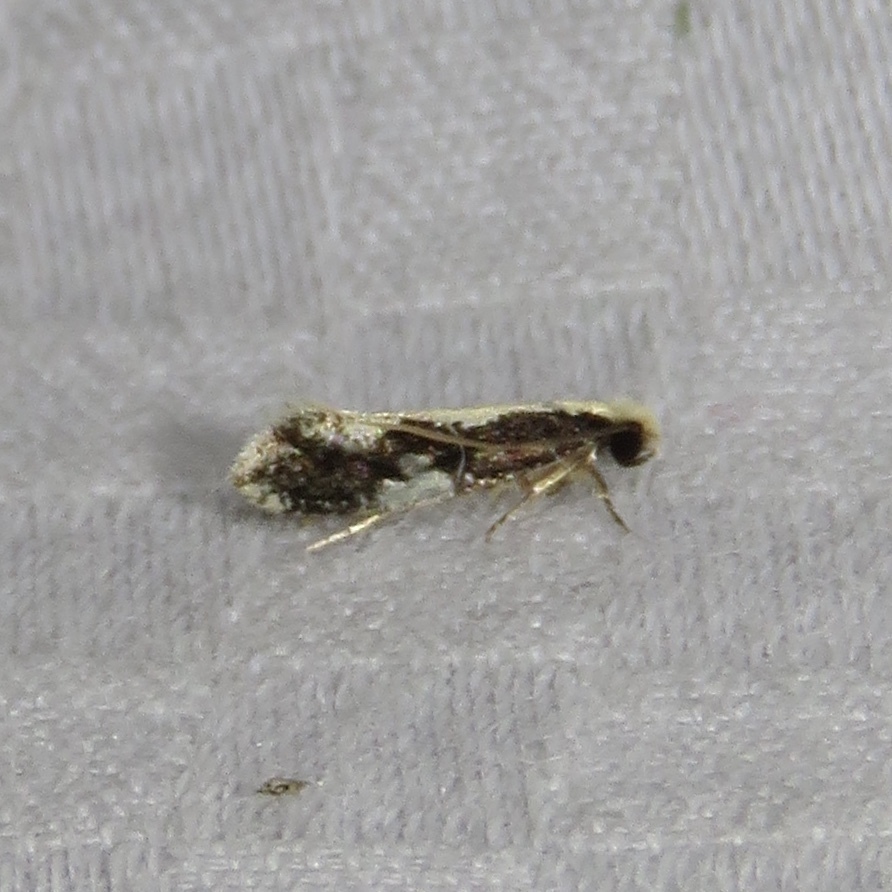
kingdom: Animalia
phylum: Arthropoda
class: Insecta
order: Lepidoptera
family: Tineidae
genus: Monopis
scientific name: Monopis dorsistrigella
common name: Skunkback monopis moth
